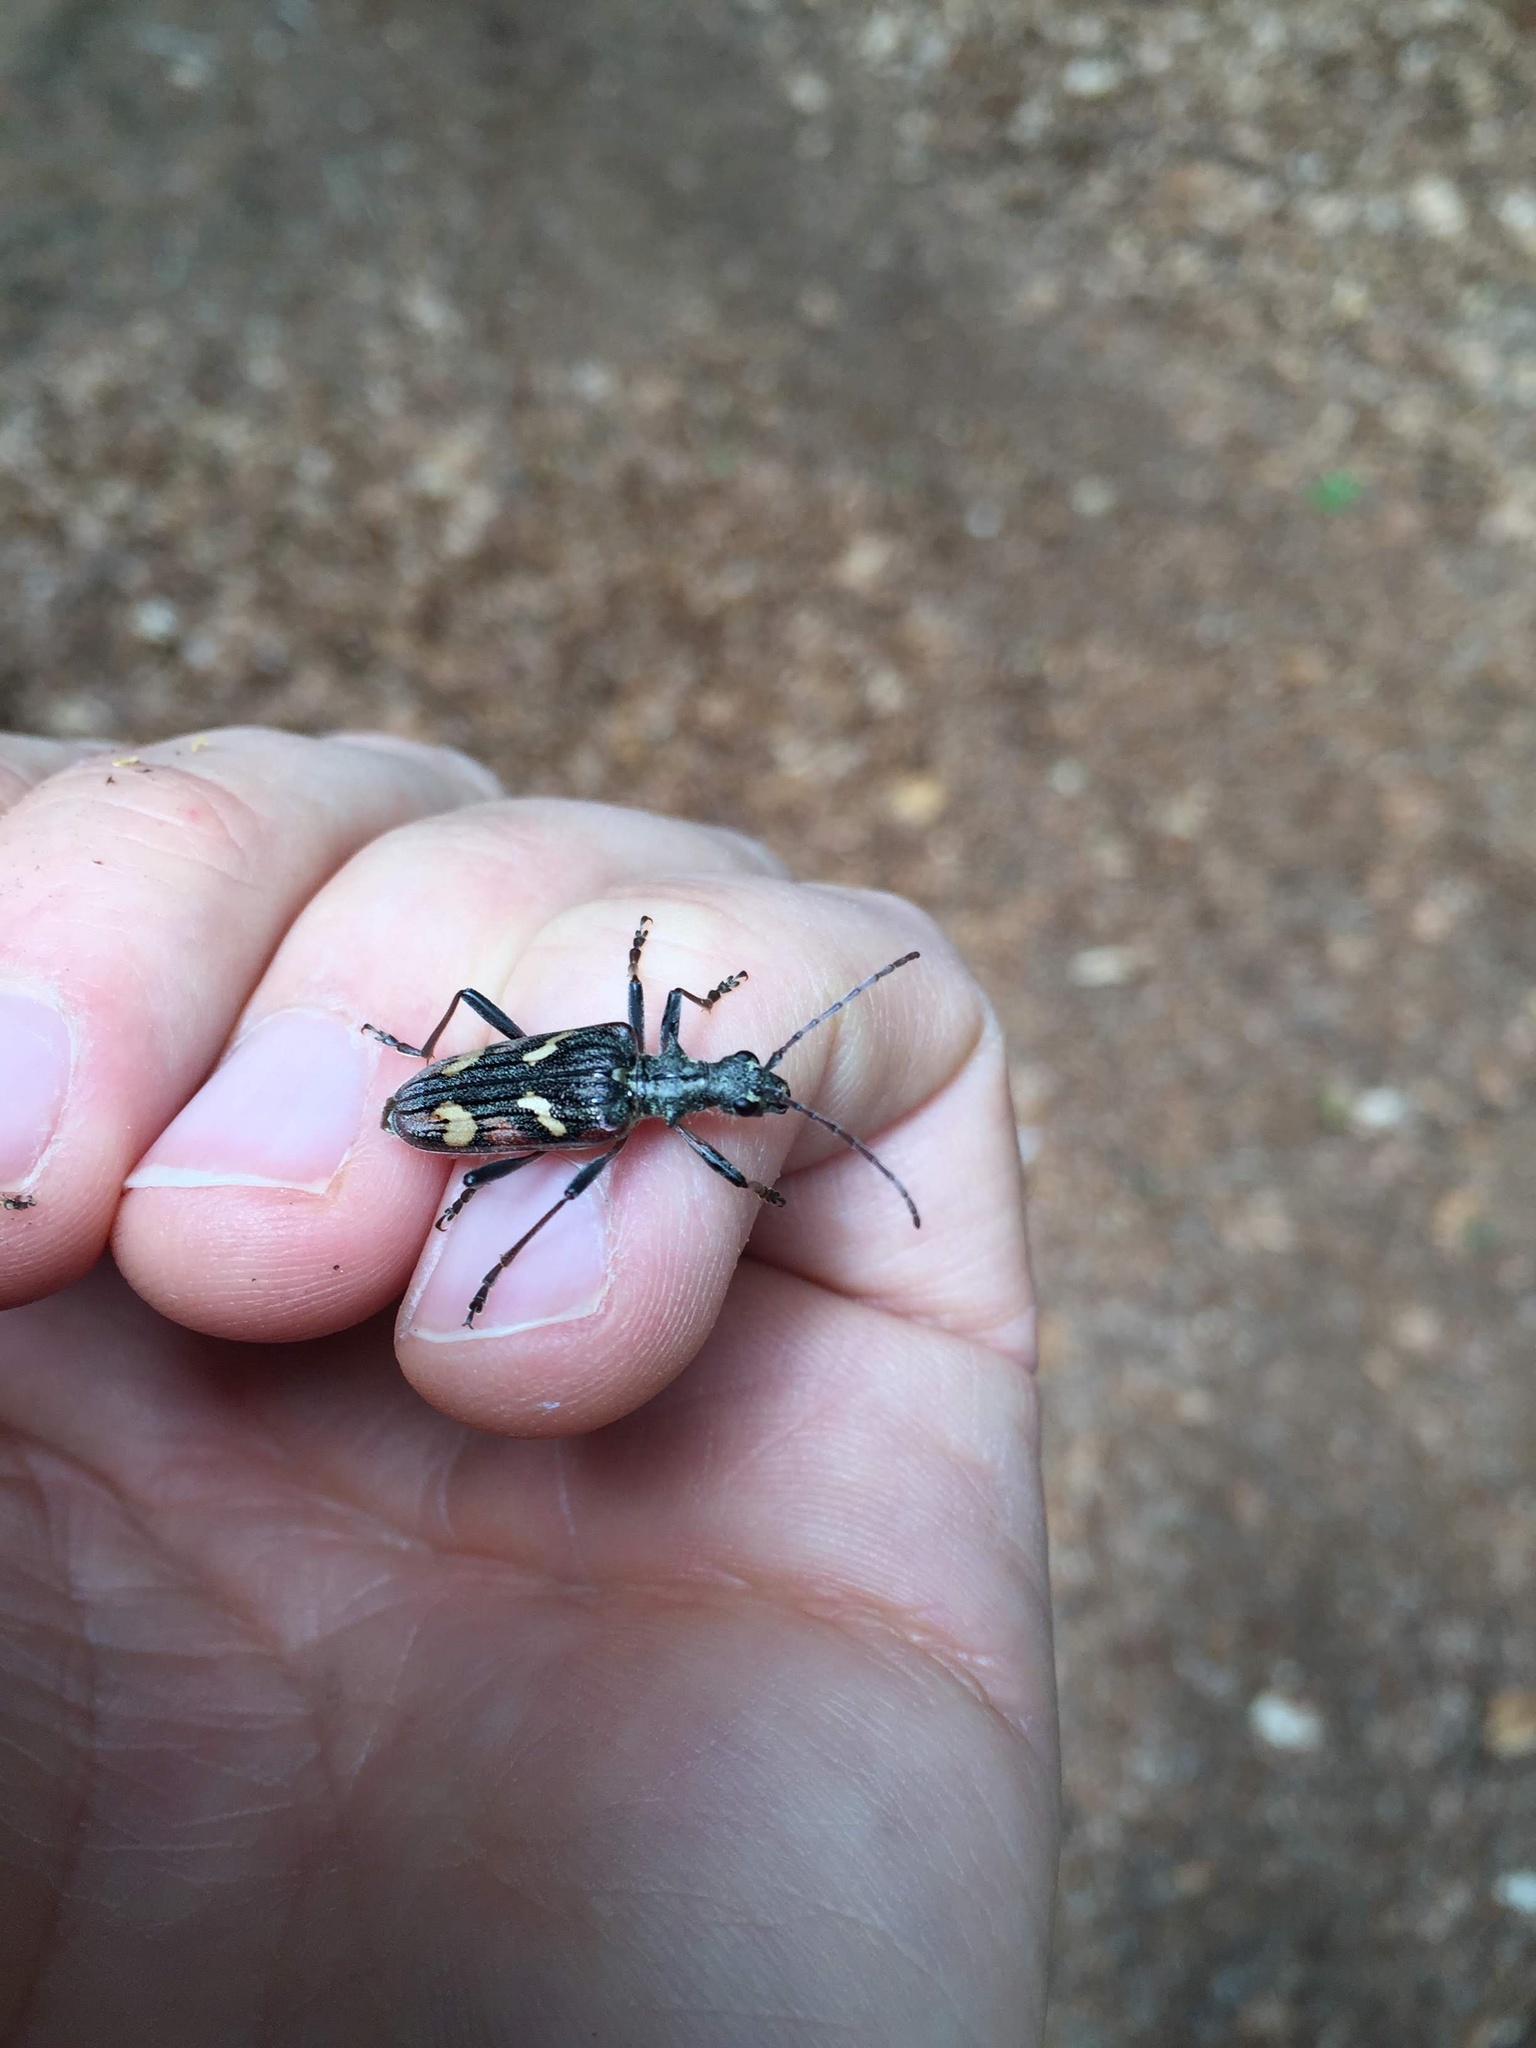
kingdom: Animalia
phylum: Arthropoda
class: Insecta
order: Coleoptera
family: Cerambycidae
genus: Rhagium
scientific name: Rhagium bifasciatum
